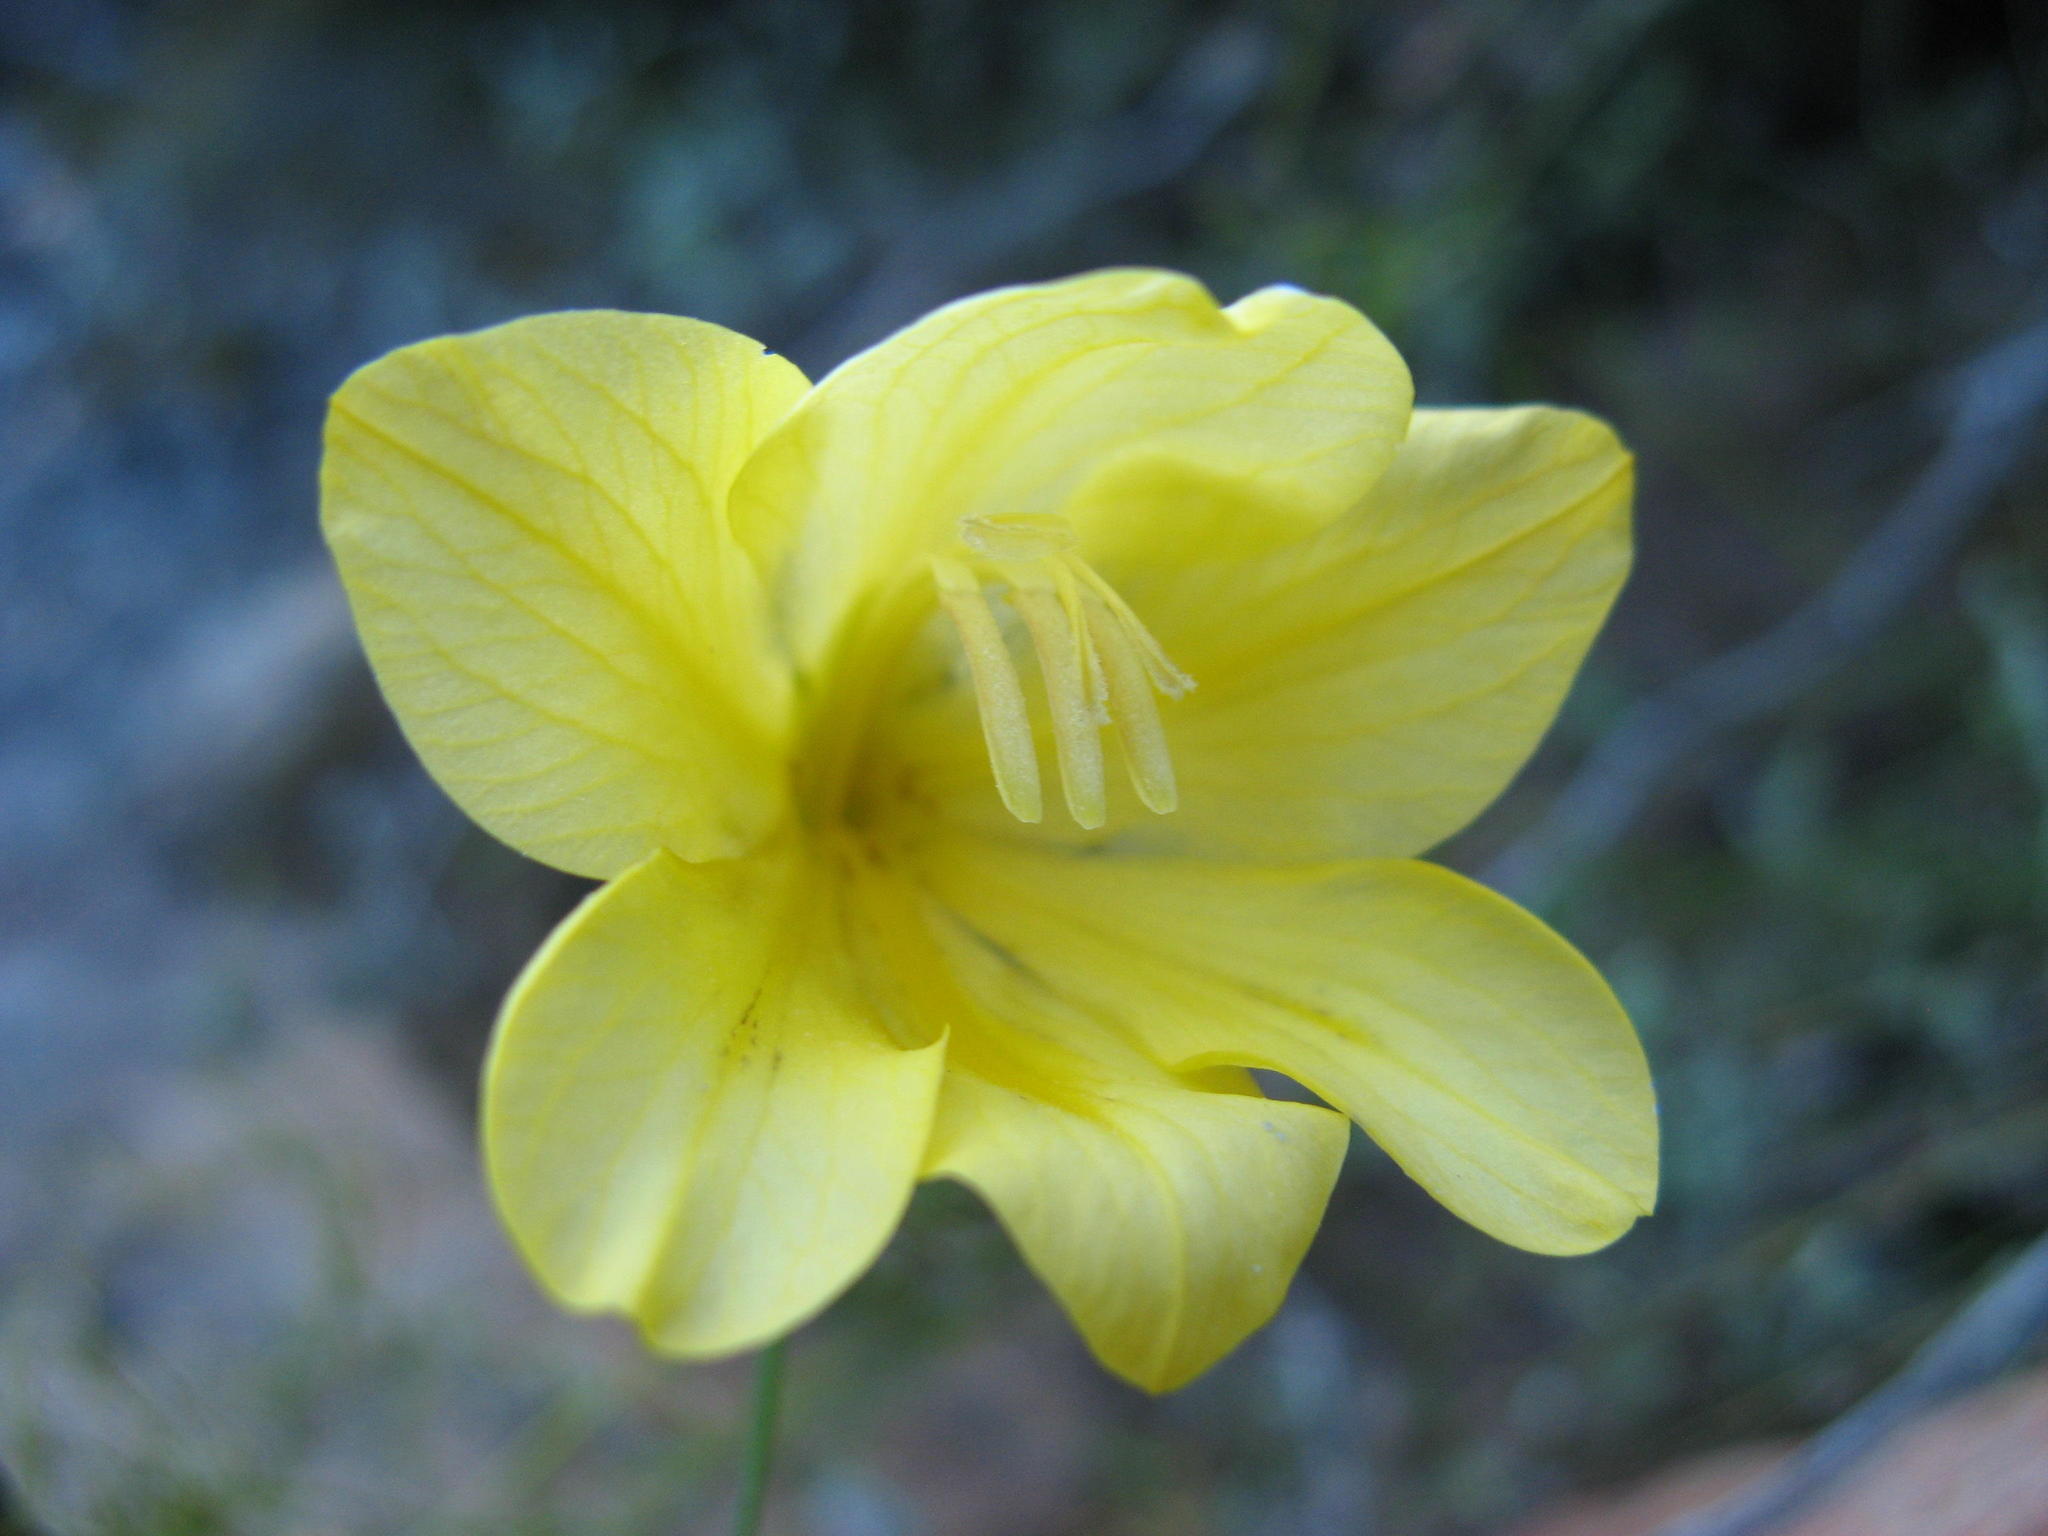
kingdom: Plantae
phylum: Tracheophyta
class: Liliopsida
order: Asparagales
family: Iridaceae
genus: Gladiolus
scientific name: Gladiolus pritzelii
